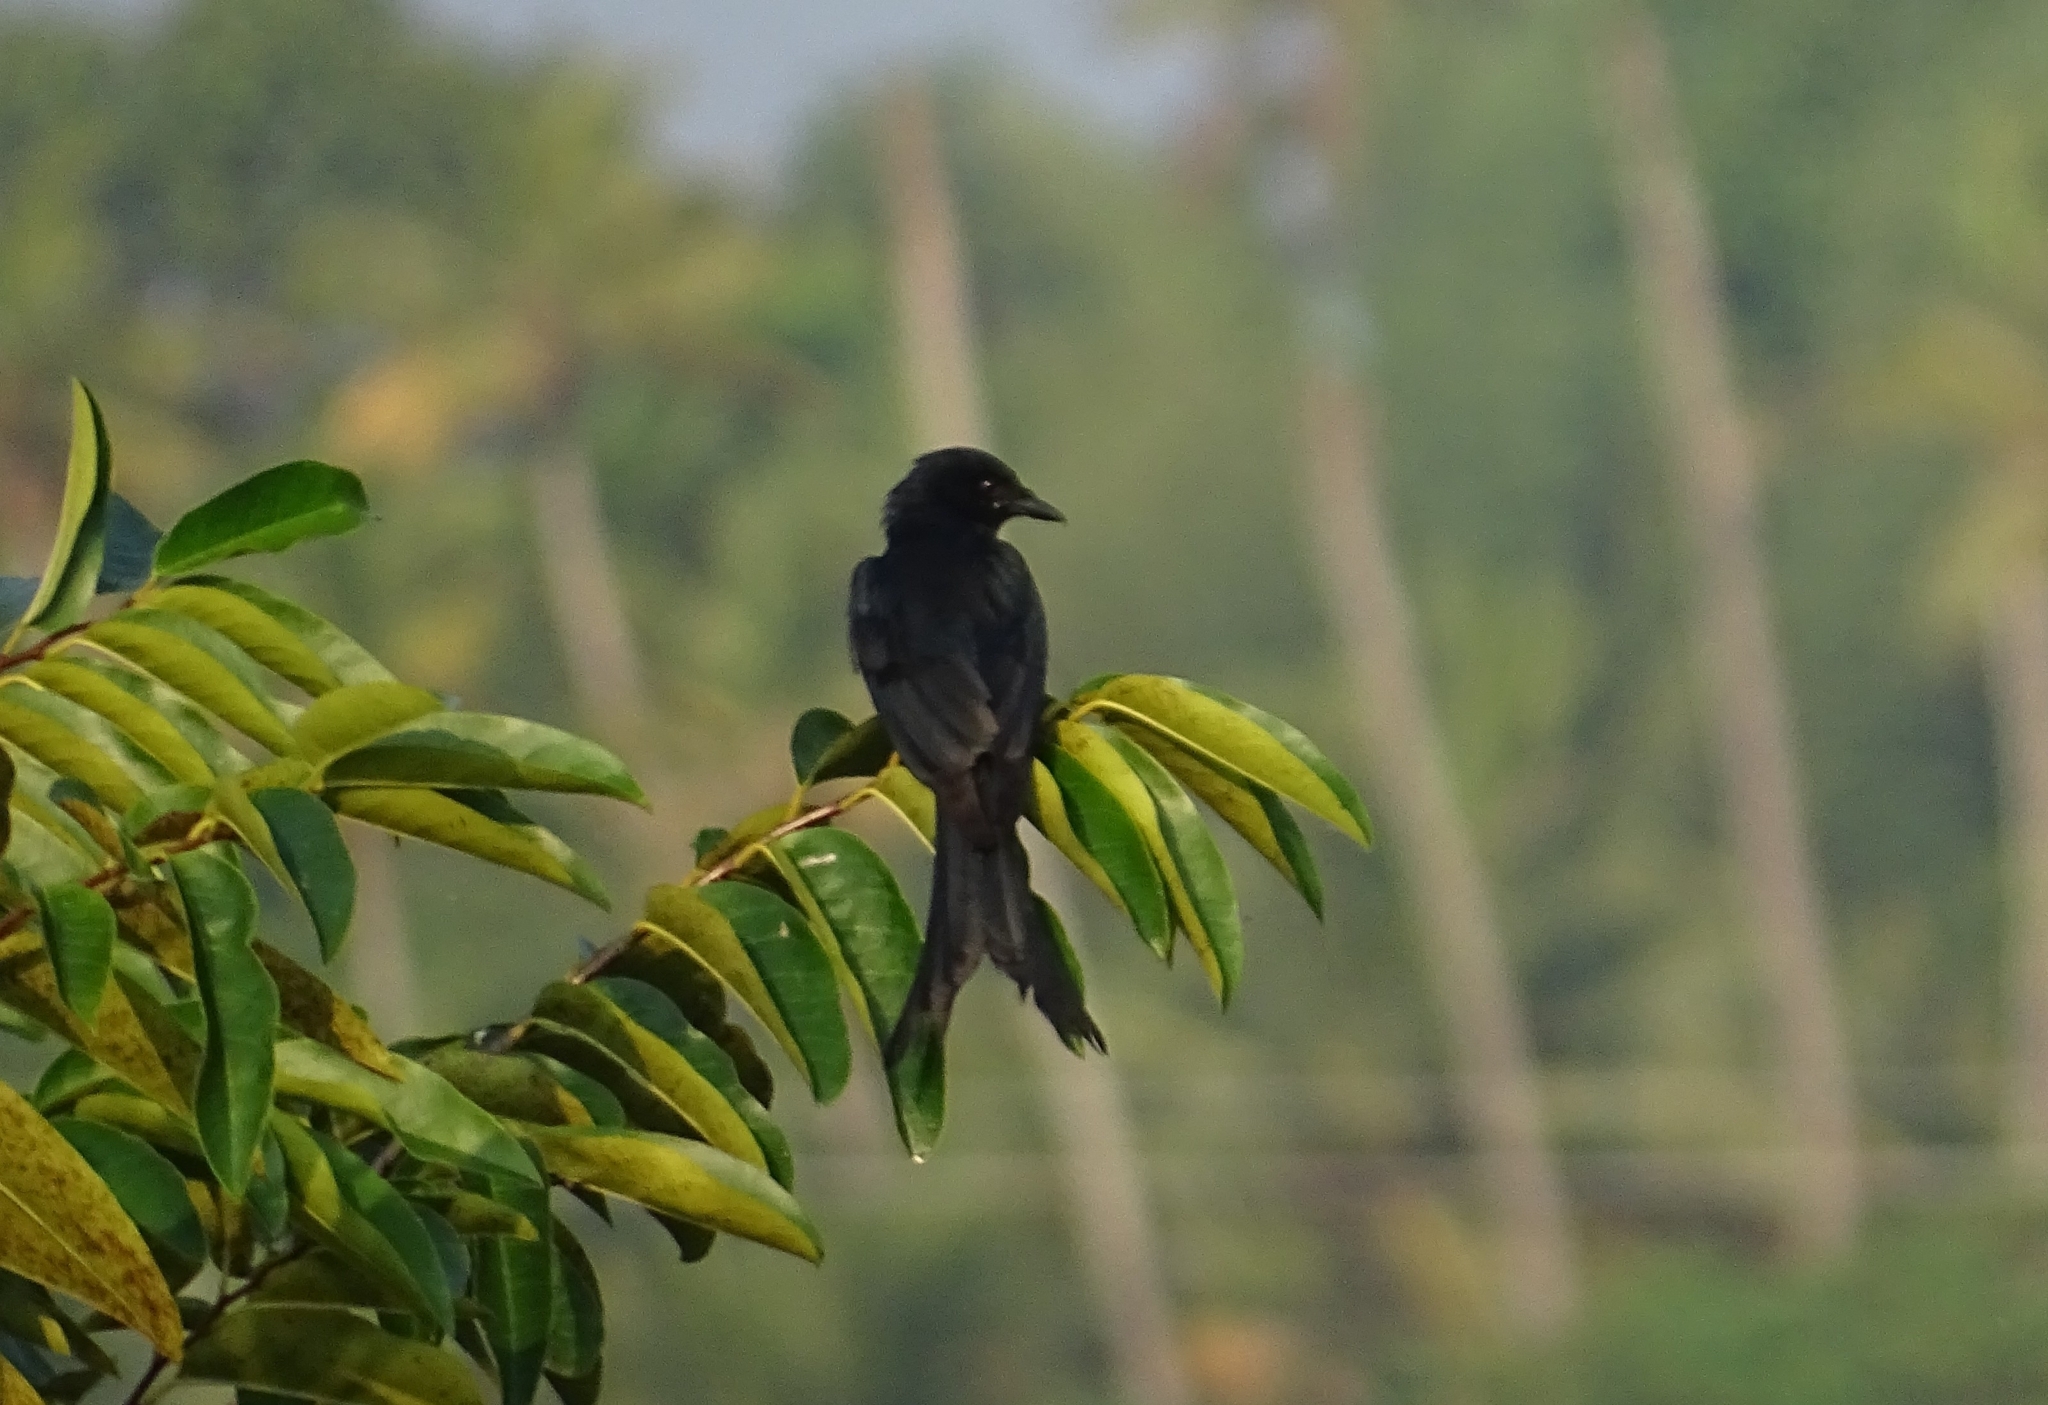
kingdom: Animalia
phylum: Chordata
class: Aves
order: Passeriformes
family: Dicruridae
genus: Dicrurus
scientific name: Dicrurus macrocercus
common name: Black drongo
